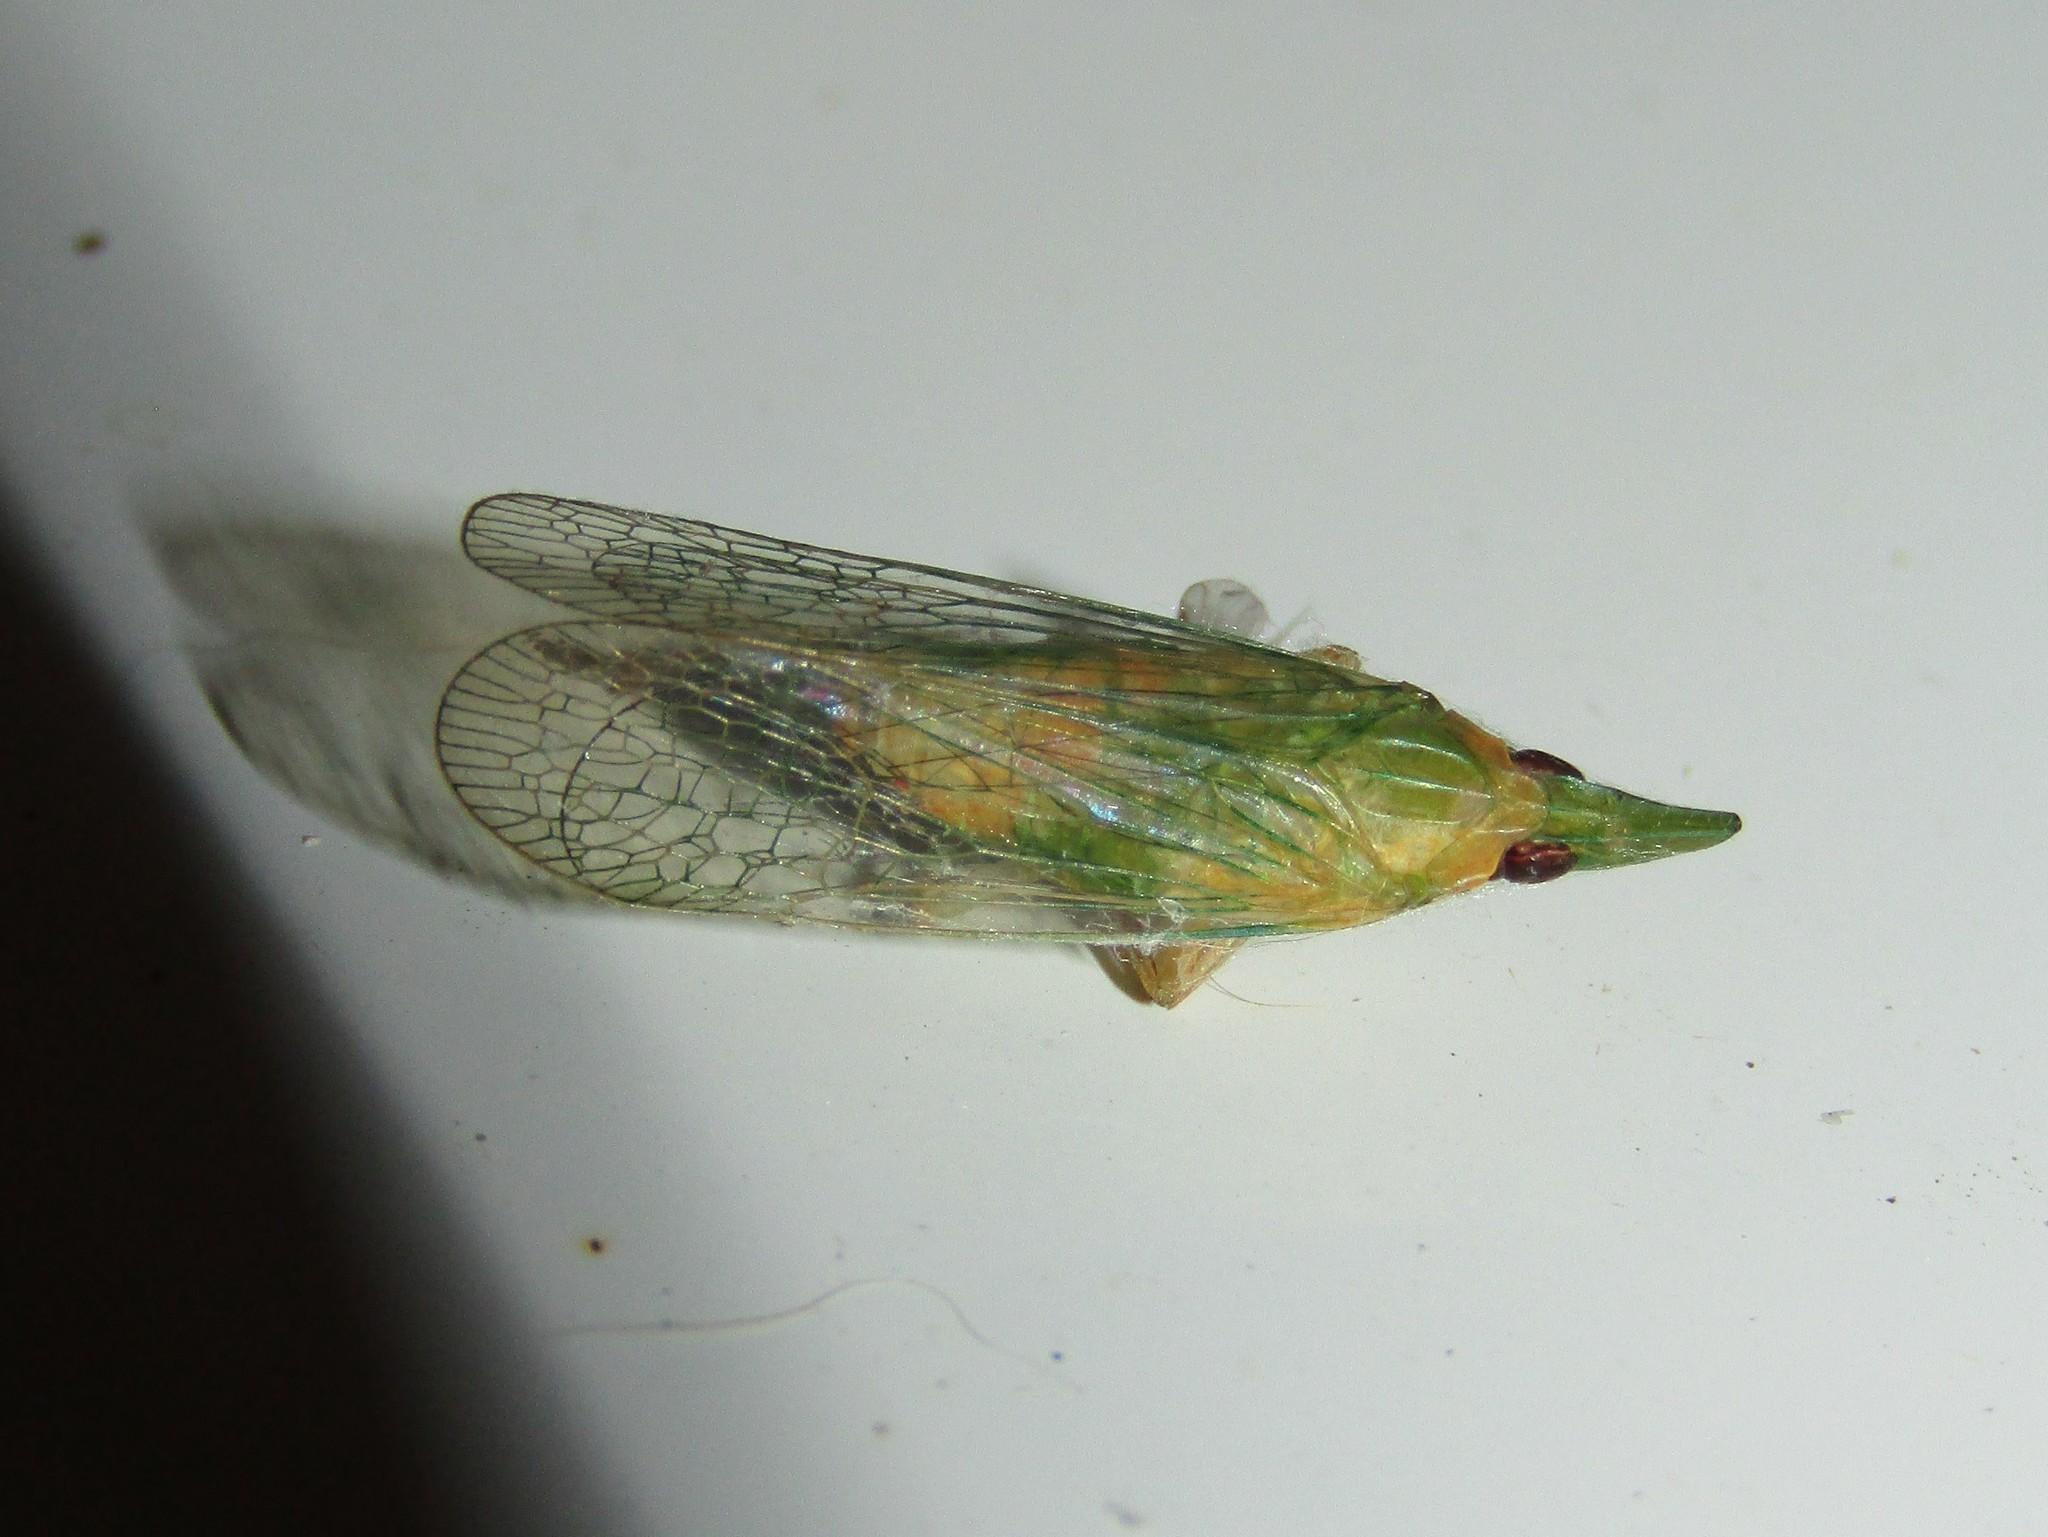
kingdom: Animalia
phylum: Arthropoda
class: Insecta
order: Hemiptera
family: Dictyopharidae
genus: Rhynchomitra
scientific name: Rhynchomitra microrhina
